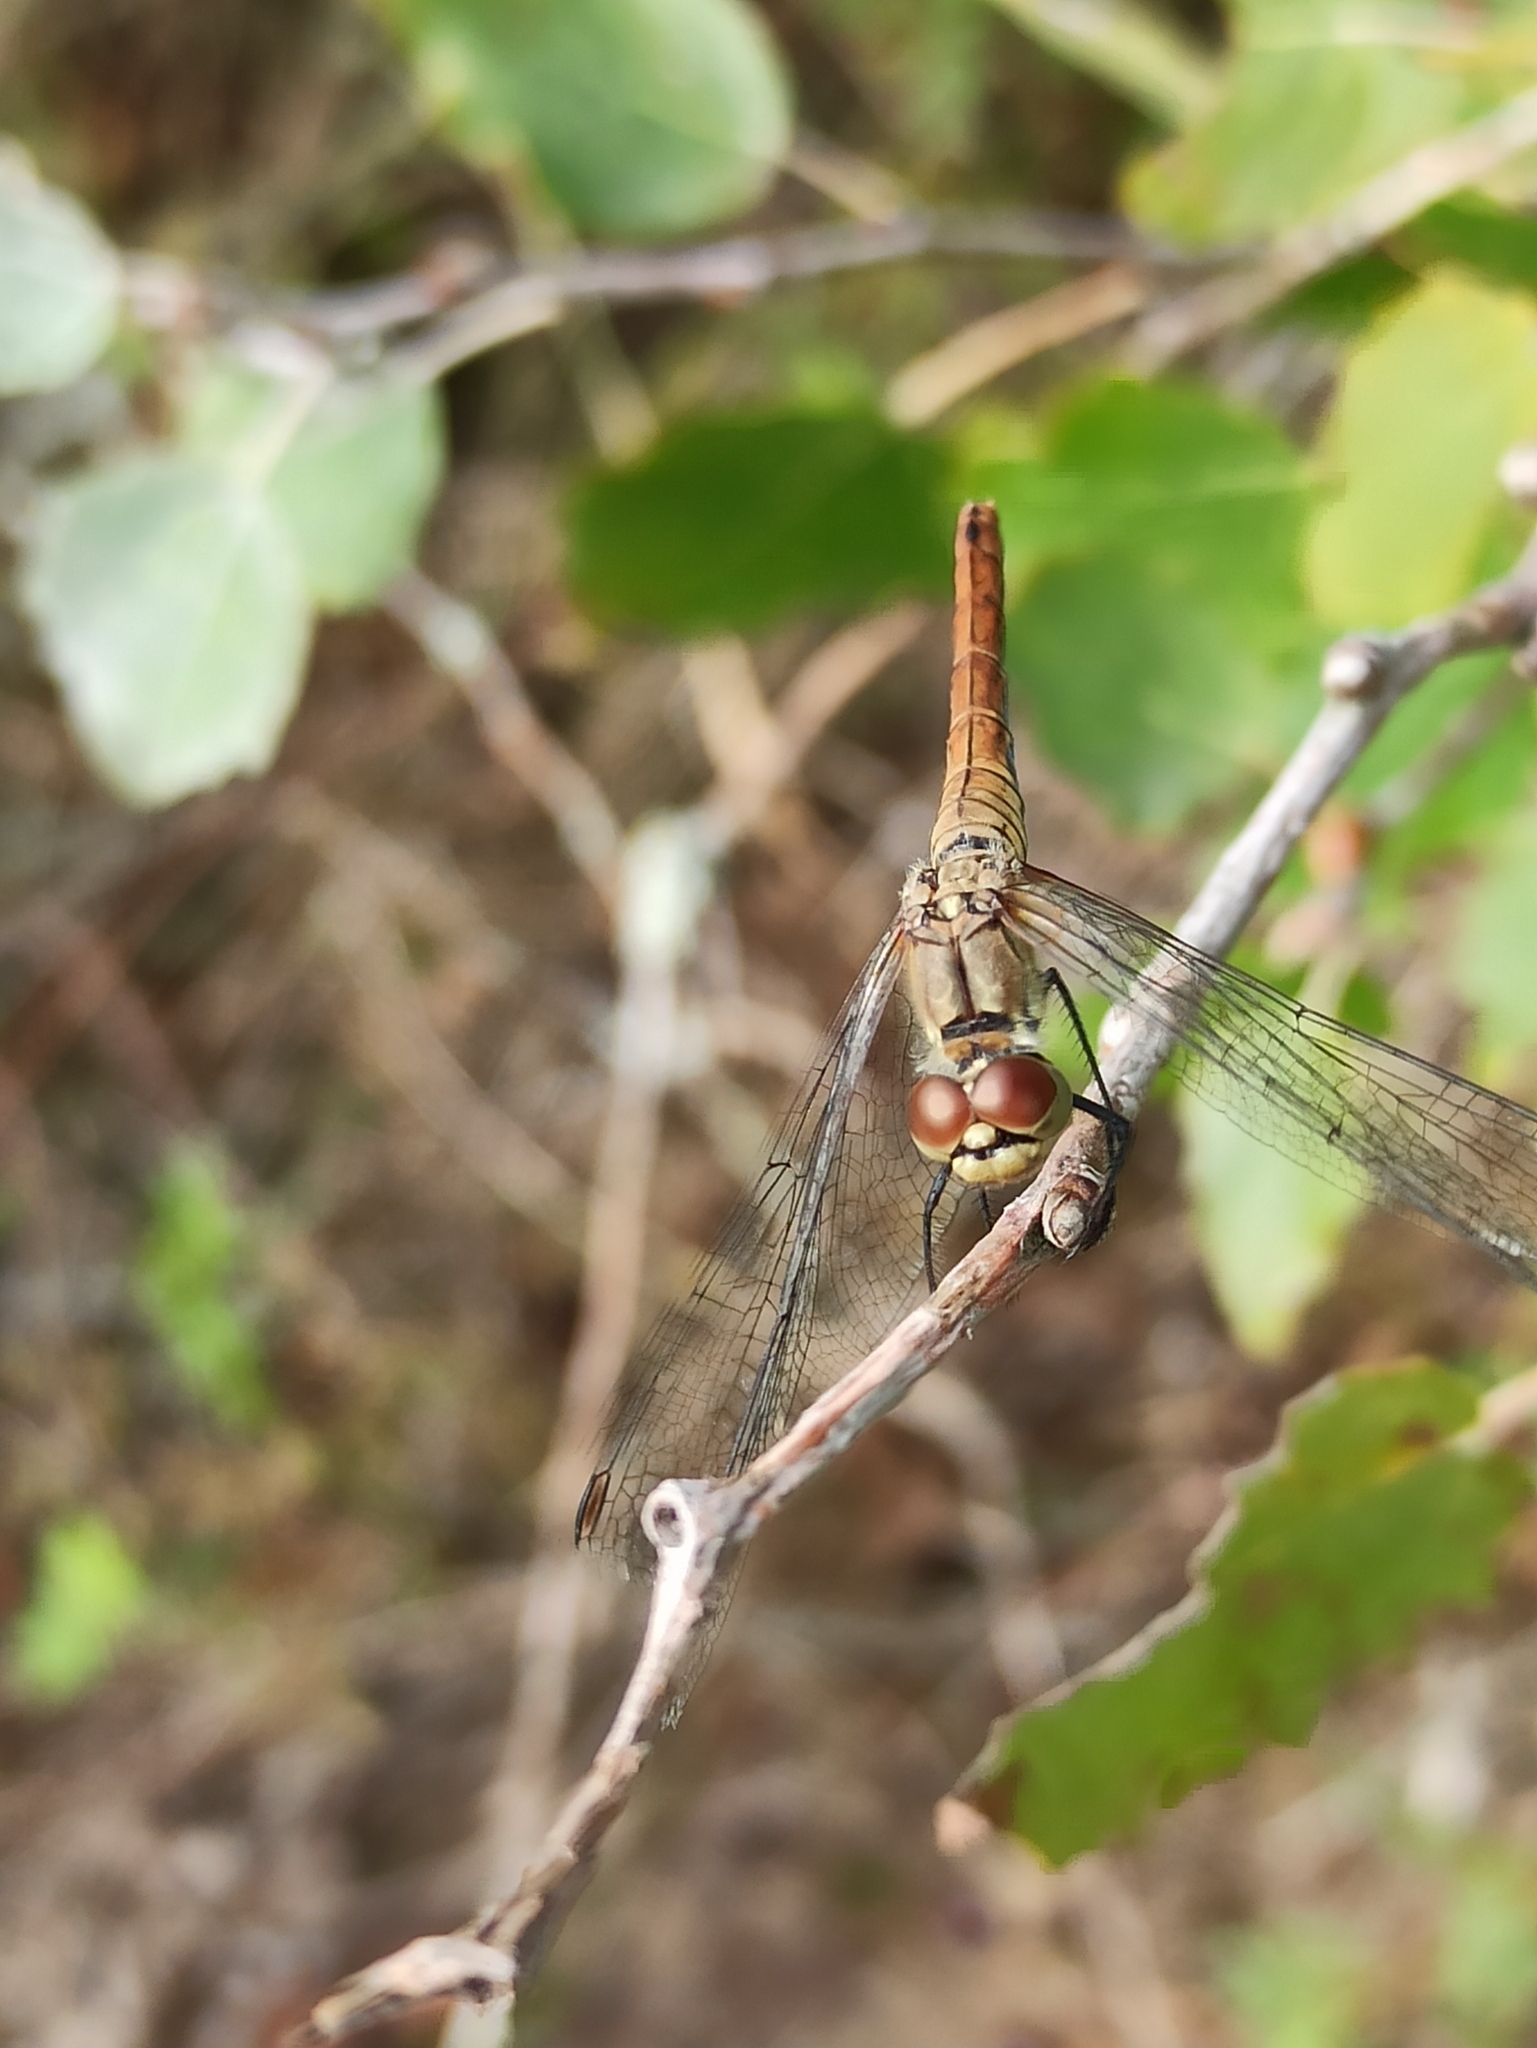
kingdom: Animalia
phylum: Arthropoda
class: Insecta
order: Odonata
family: Libellulidae
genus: Sympetrum
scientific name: Sympetrum sanguineum
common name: Ruddy darter
